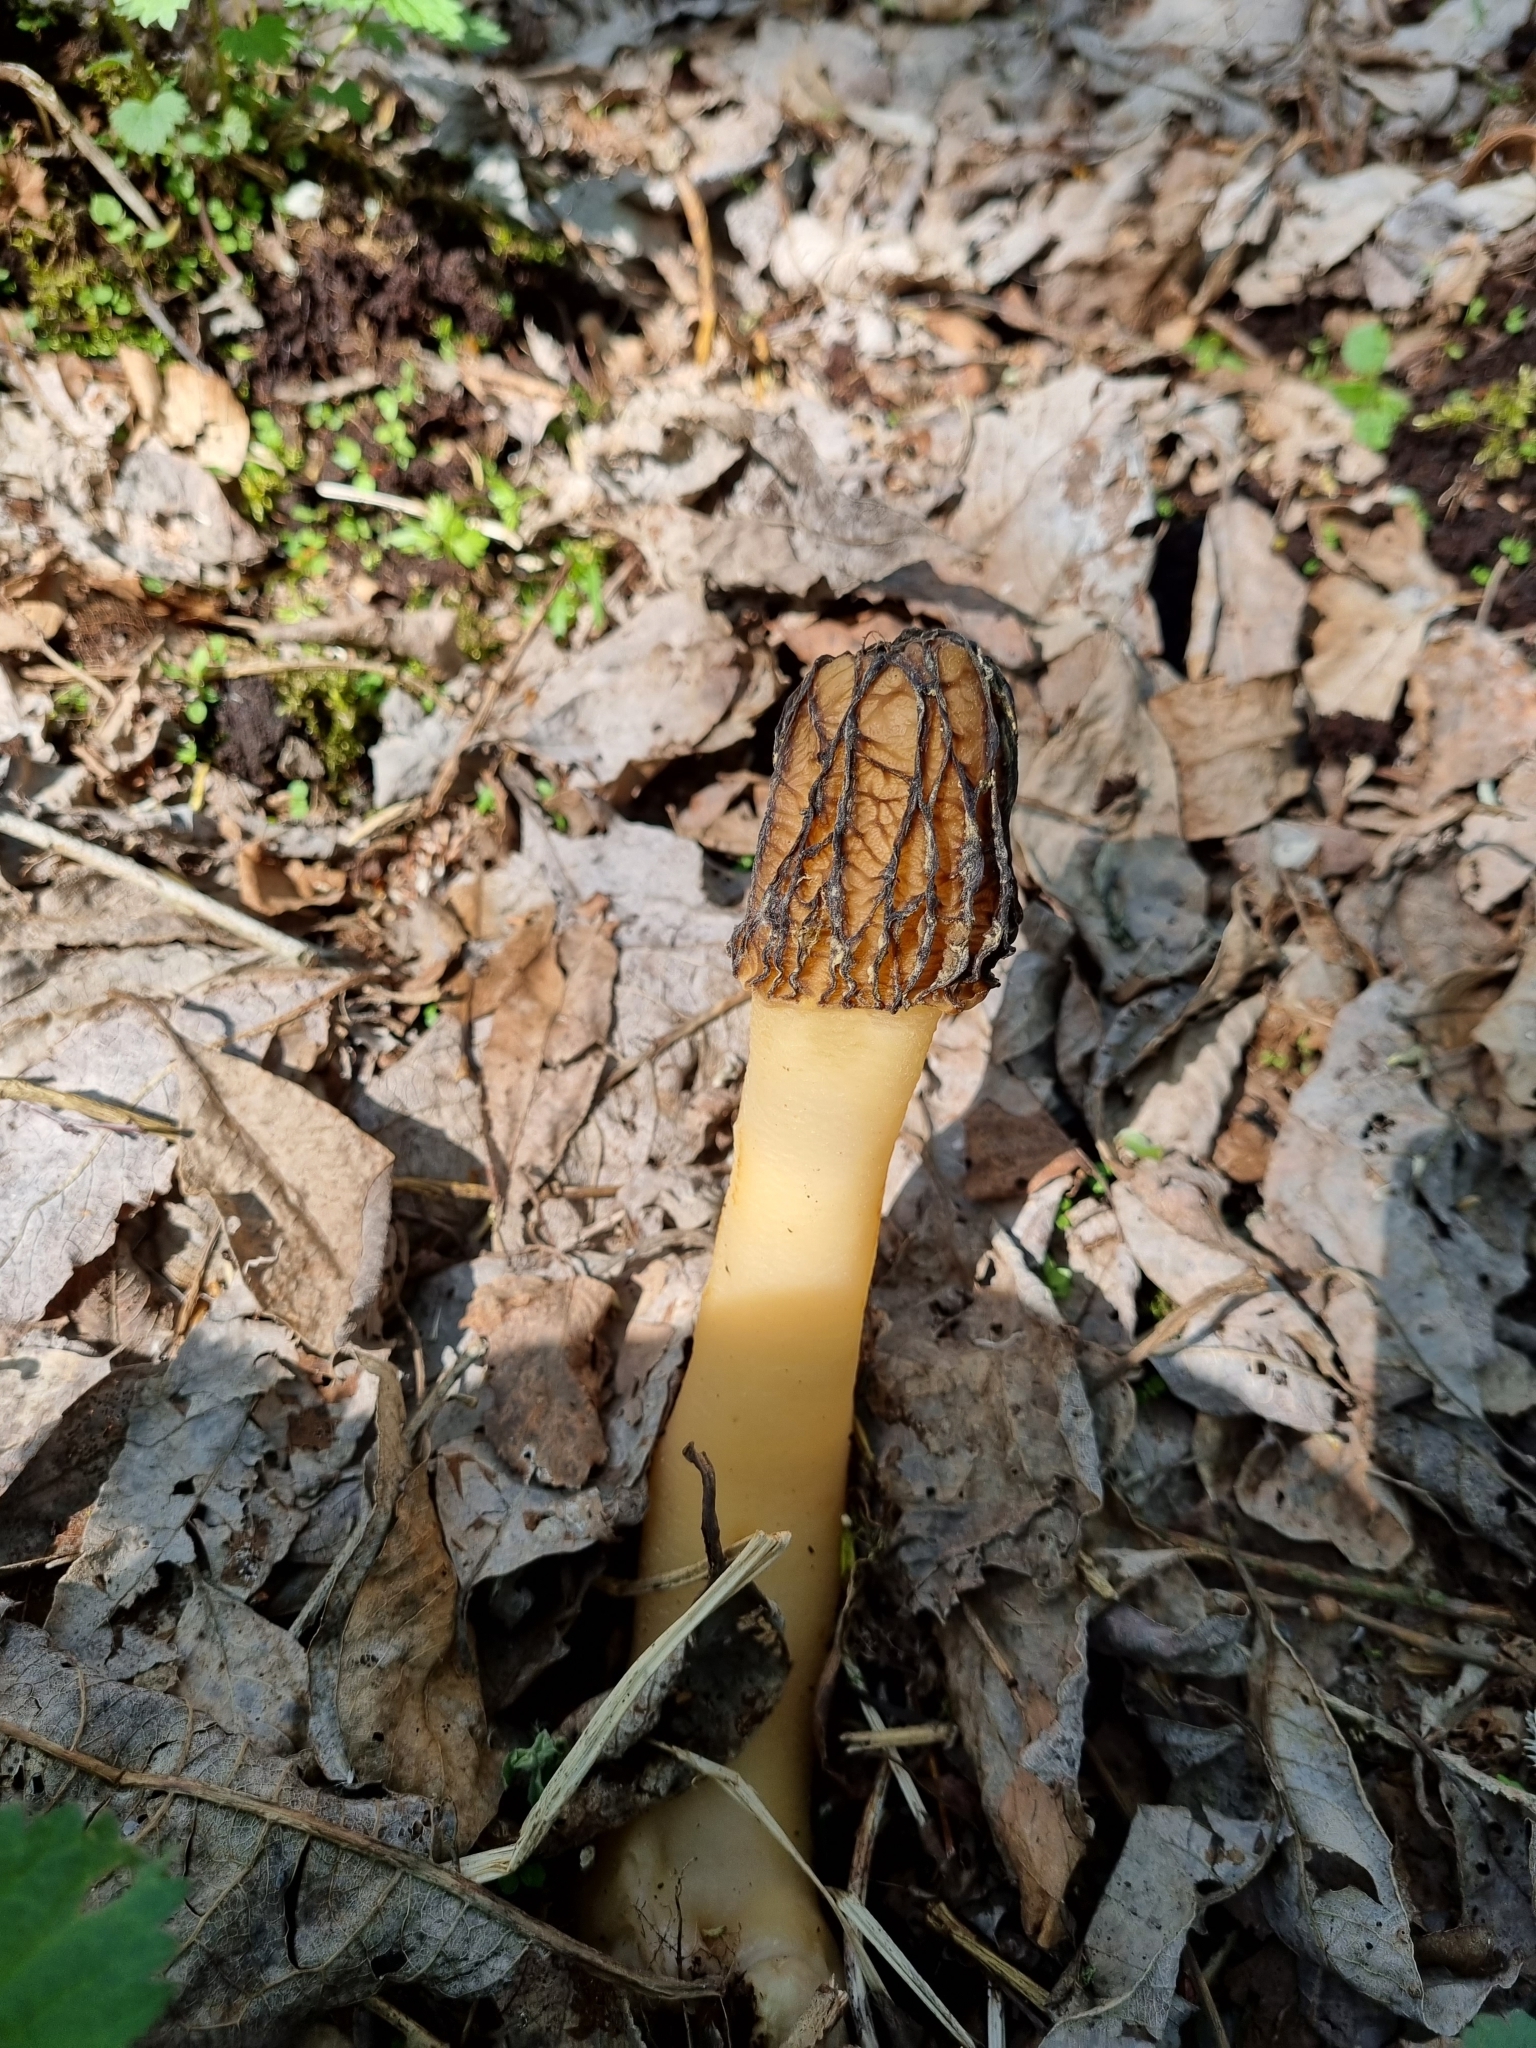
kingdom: Fungi
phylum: Ascomycota
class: Pezizomycetes
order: Pezizales
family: Morchellaceae
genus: Verpa
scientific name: Verpa bohemica
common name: Wrinkled thimble morel
